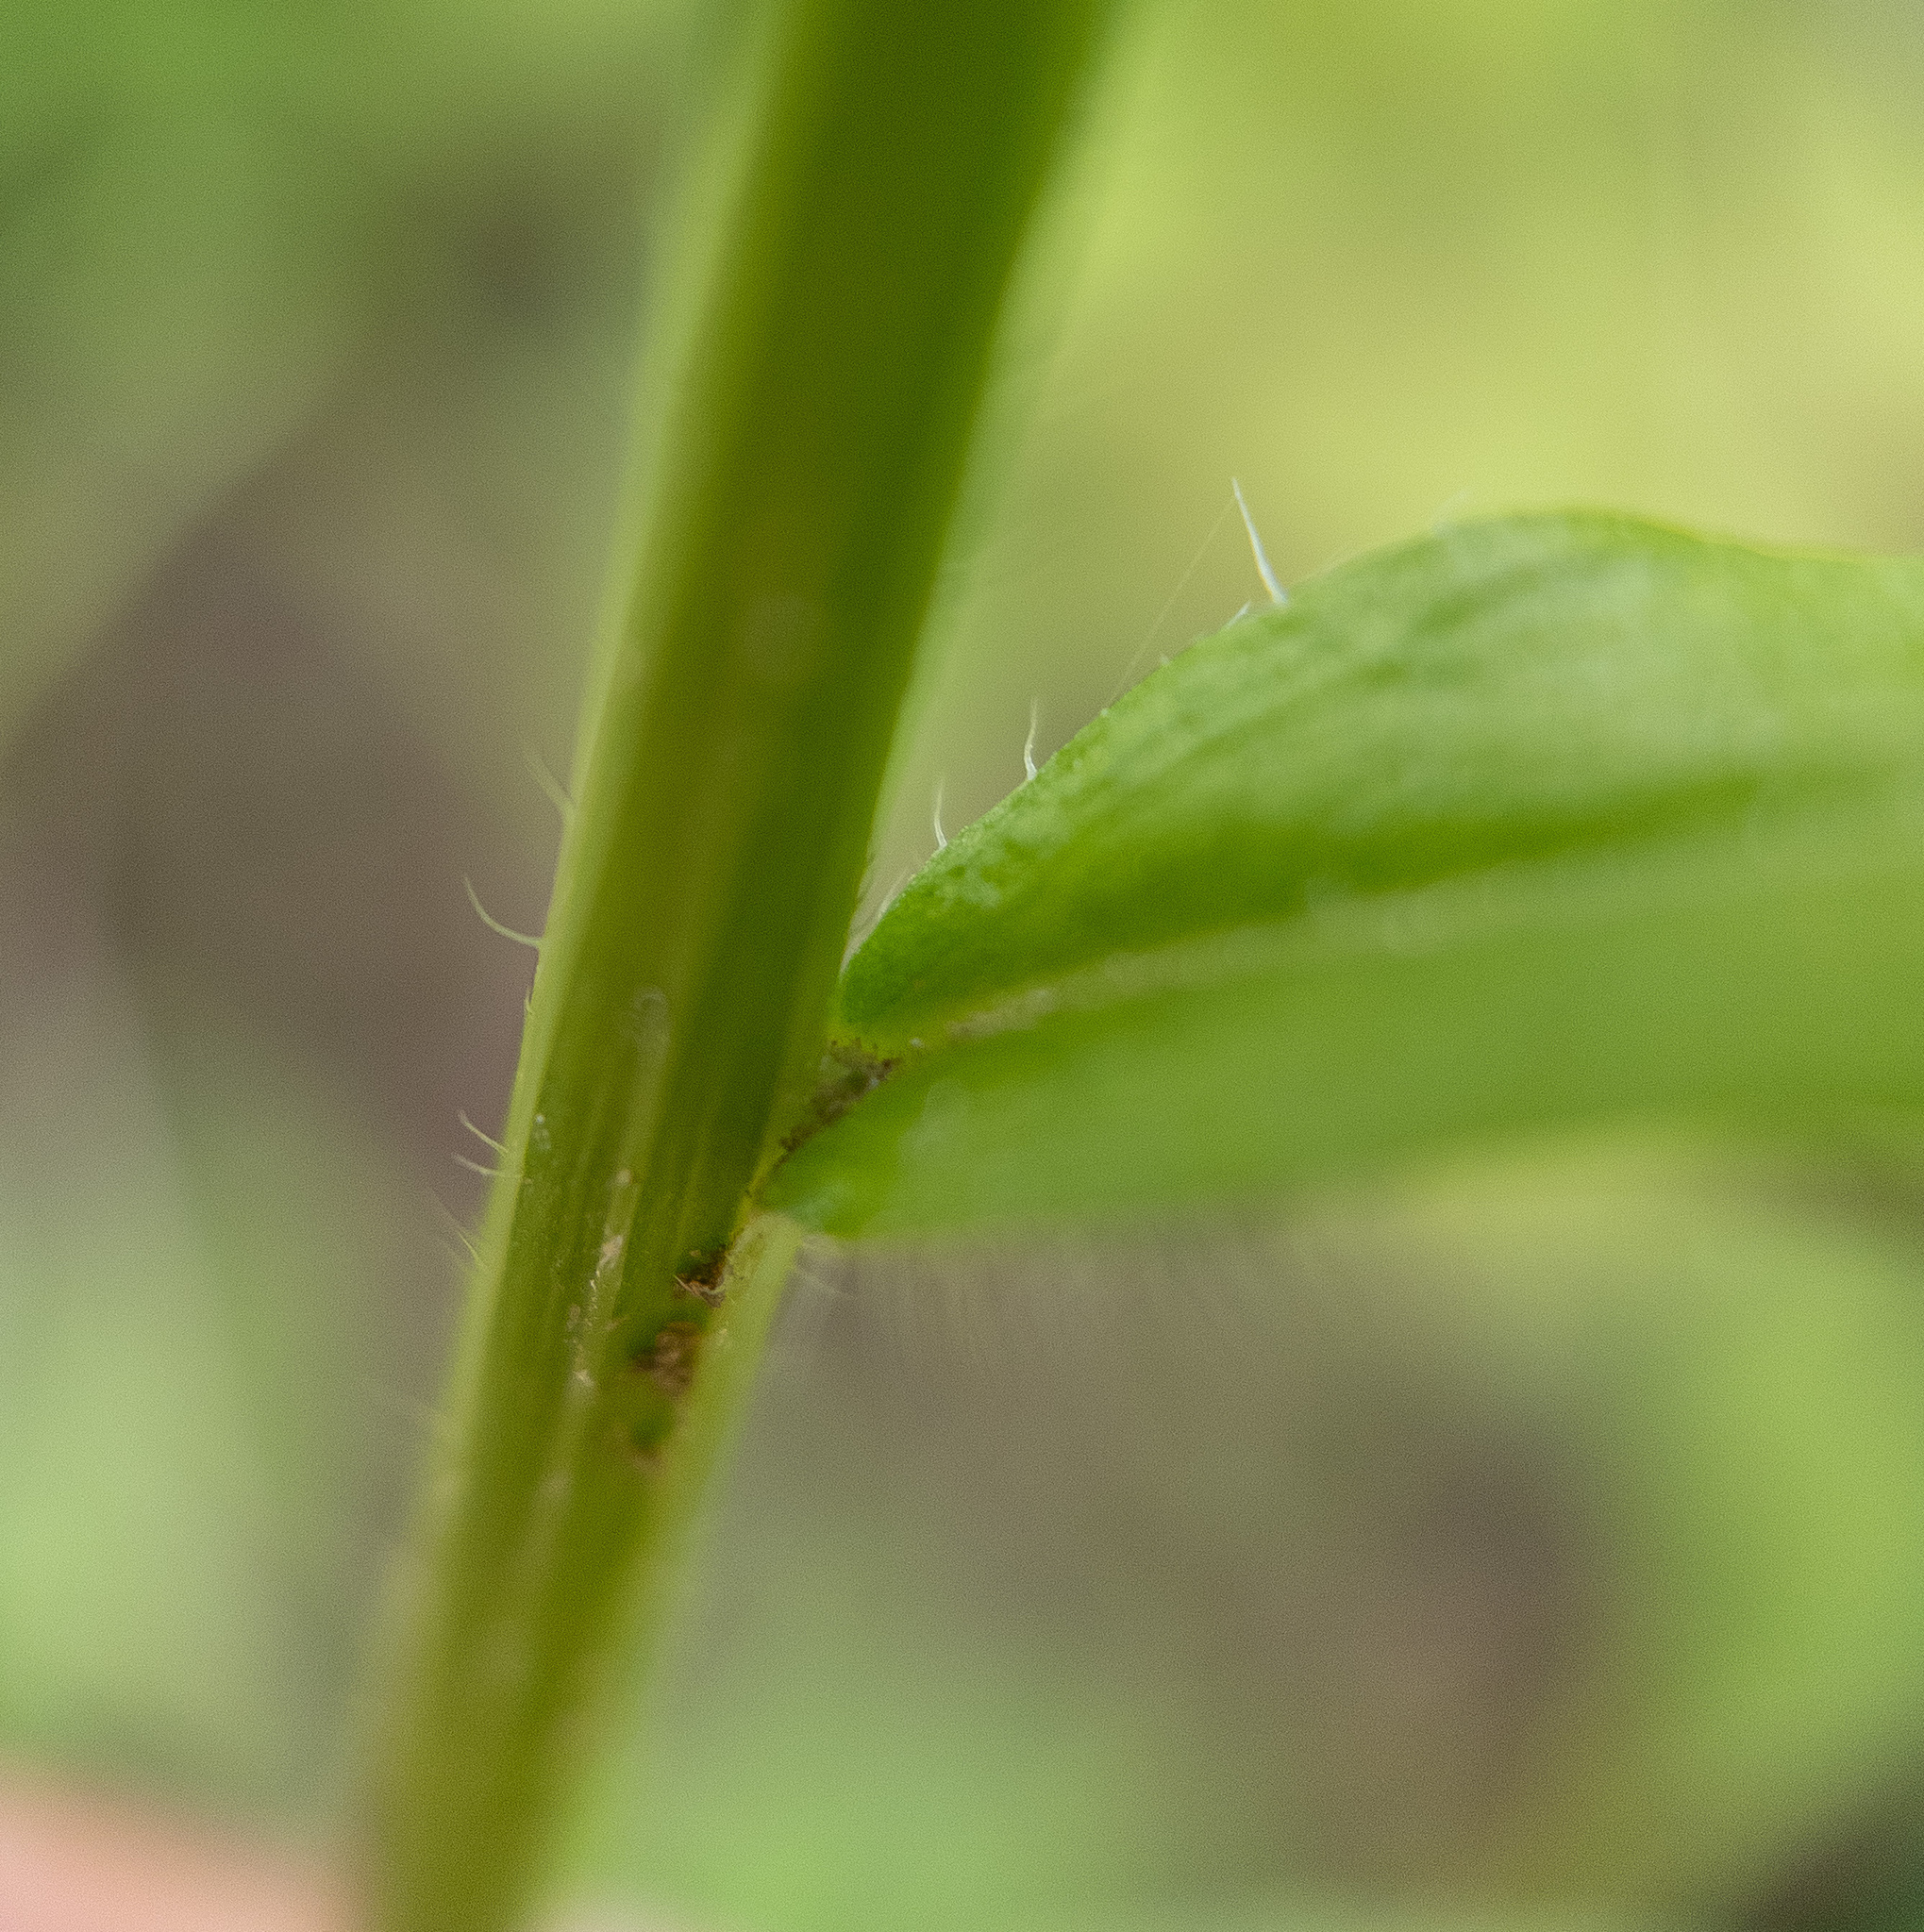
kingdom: Plantae
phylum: Tracheophyta
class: Magnoliopsida
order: Asterales
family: Asteraceae
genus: Erigeron
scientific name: Erigeron annuus
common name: Tall fleabane
